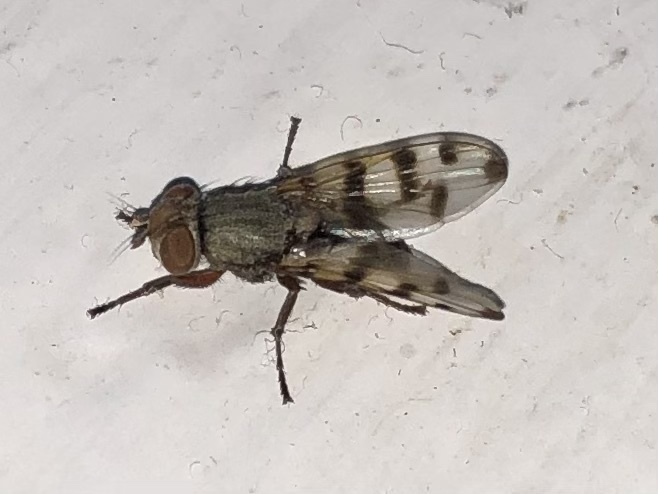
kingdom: Animalia
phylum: Arthropoda
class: Insecta
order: Diptera
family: Ulidiidae
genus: Ceroxys
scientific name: Ceroxys latiusculus
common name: Picture-winged fly
